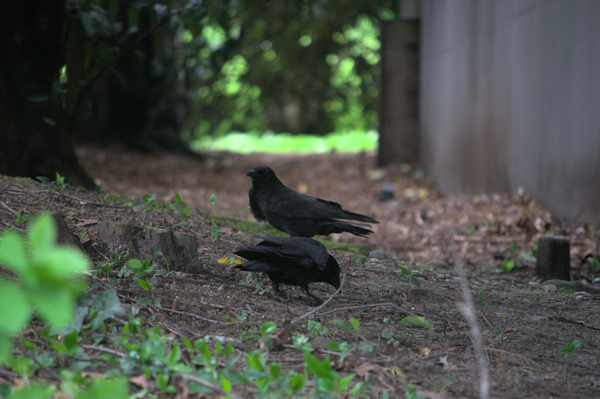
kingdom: Animalia
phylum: Chordata
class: Aves
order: Passeriformes
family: Corvidae
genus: Corvus
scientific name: Corvus brachyrhynchos
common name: American crow
